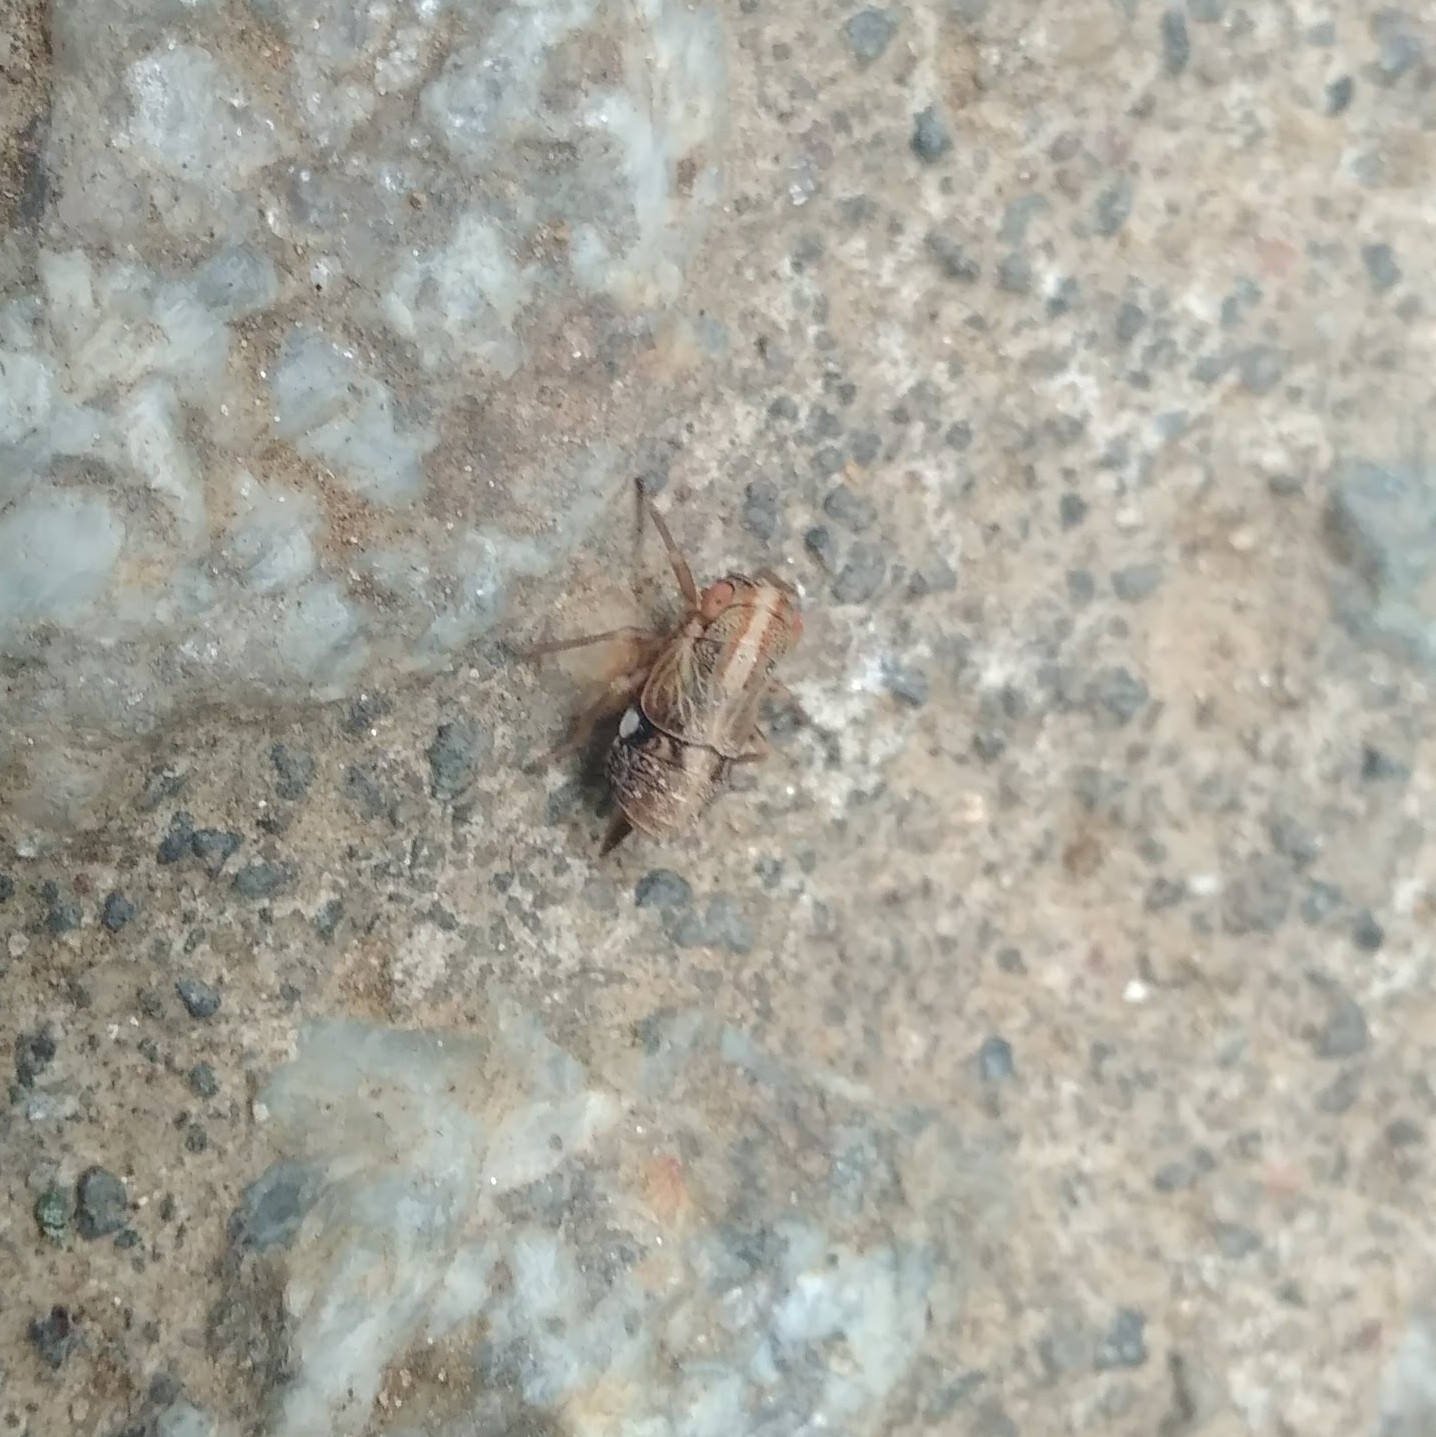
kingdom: Animalia
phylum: Arthropoda
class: Insecta
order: Hemiptera
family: Caliscelidae
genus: Concepcionella
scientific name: Concepcionella theunei
